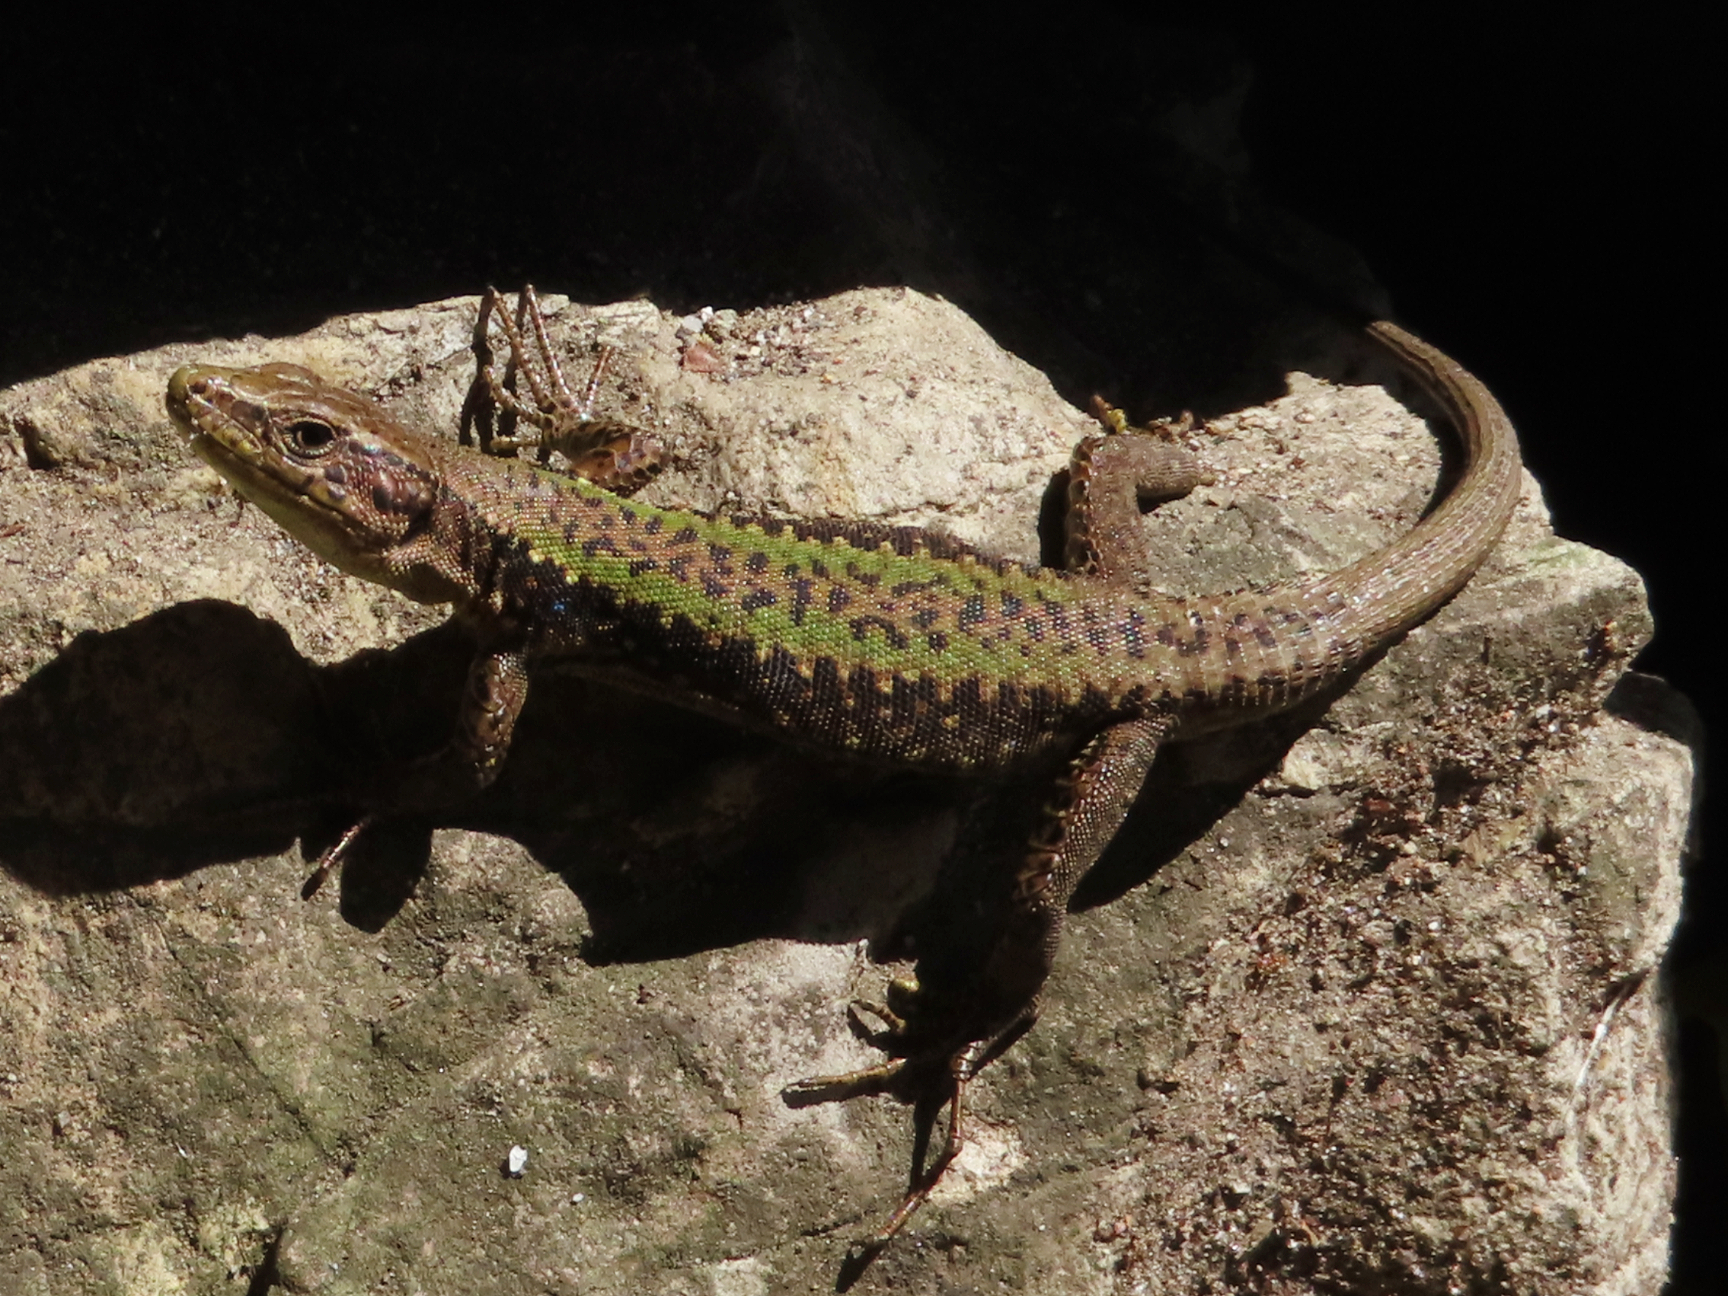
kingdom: Animalia
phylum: Chordata
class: Squamata
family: Lacertidae
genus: Darevskia
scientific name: Darevskia mixta
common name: Ajarian lizard
